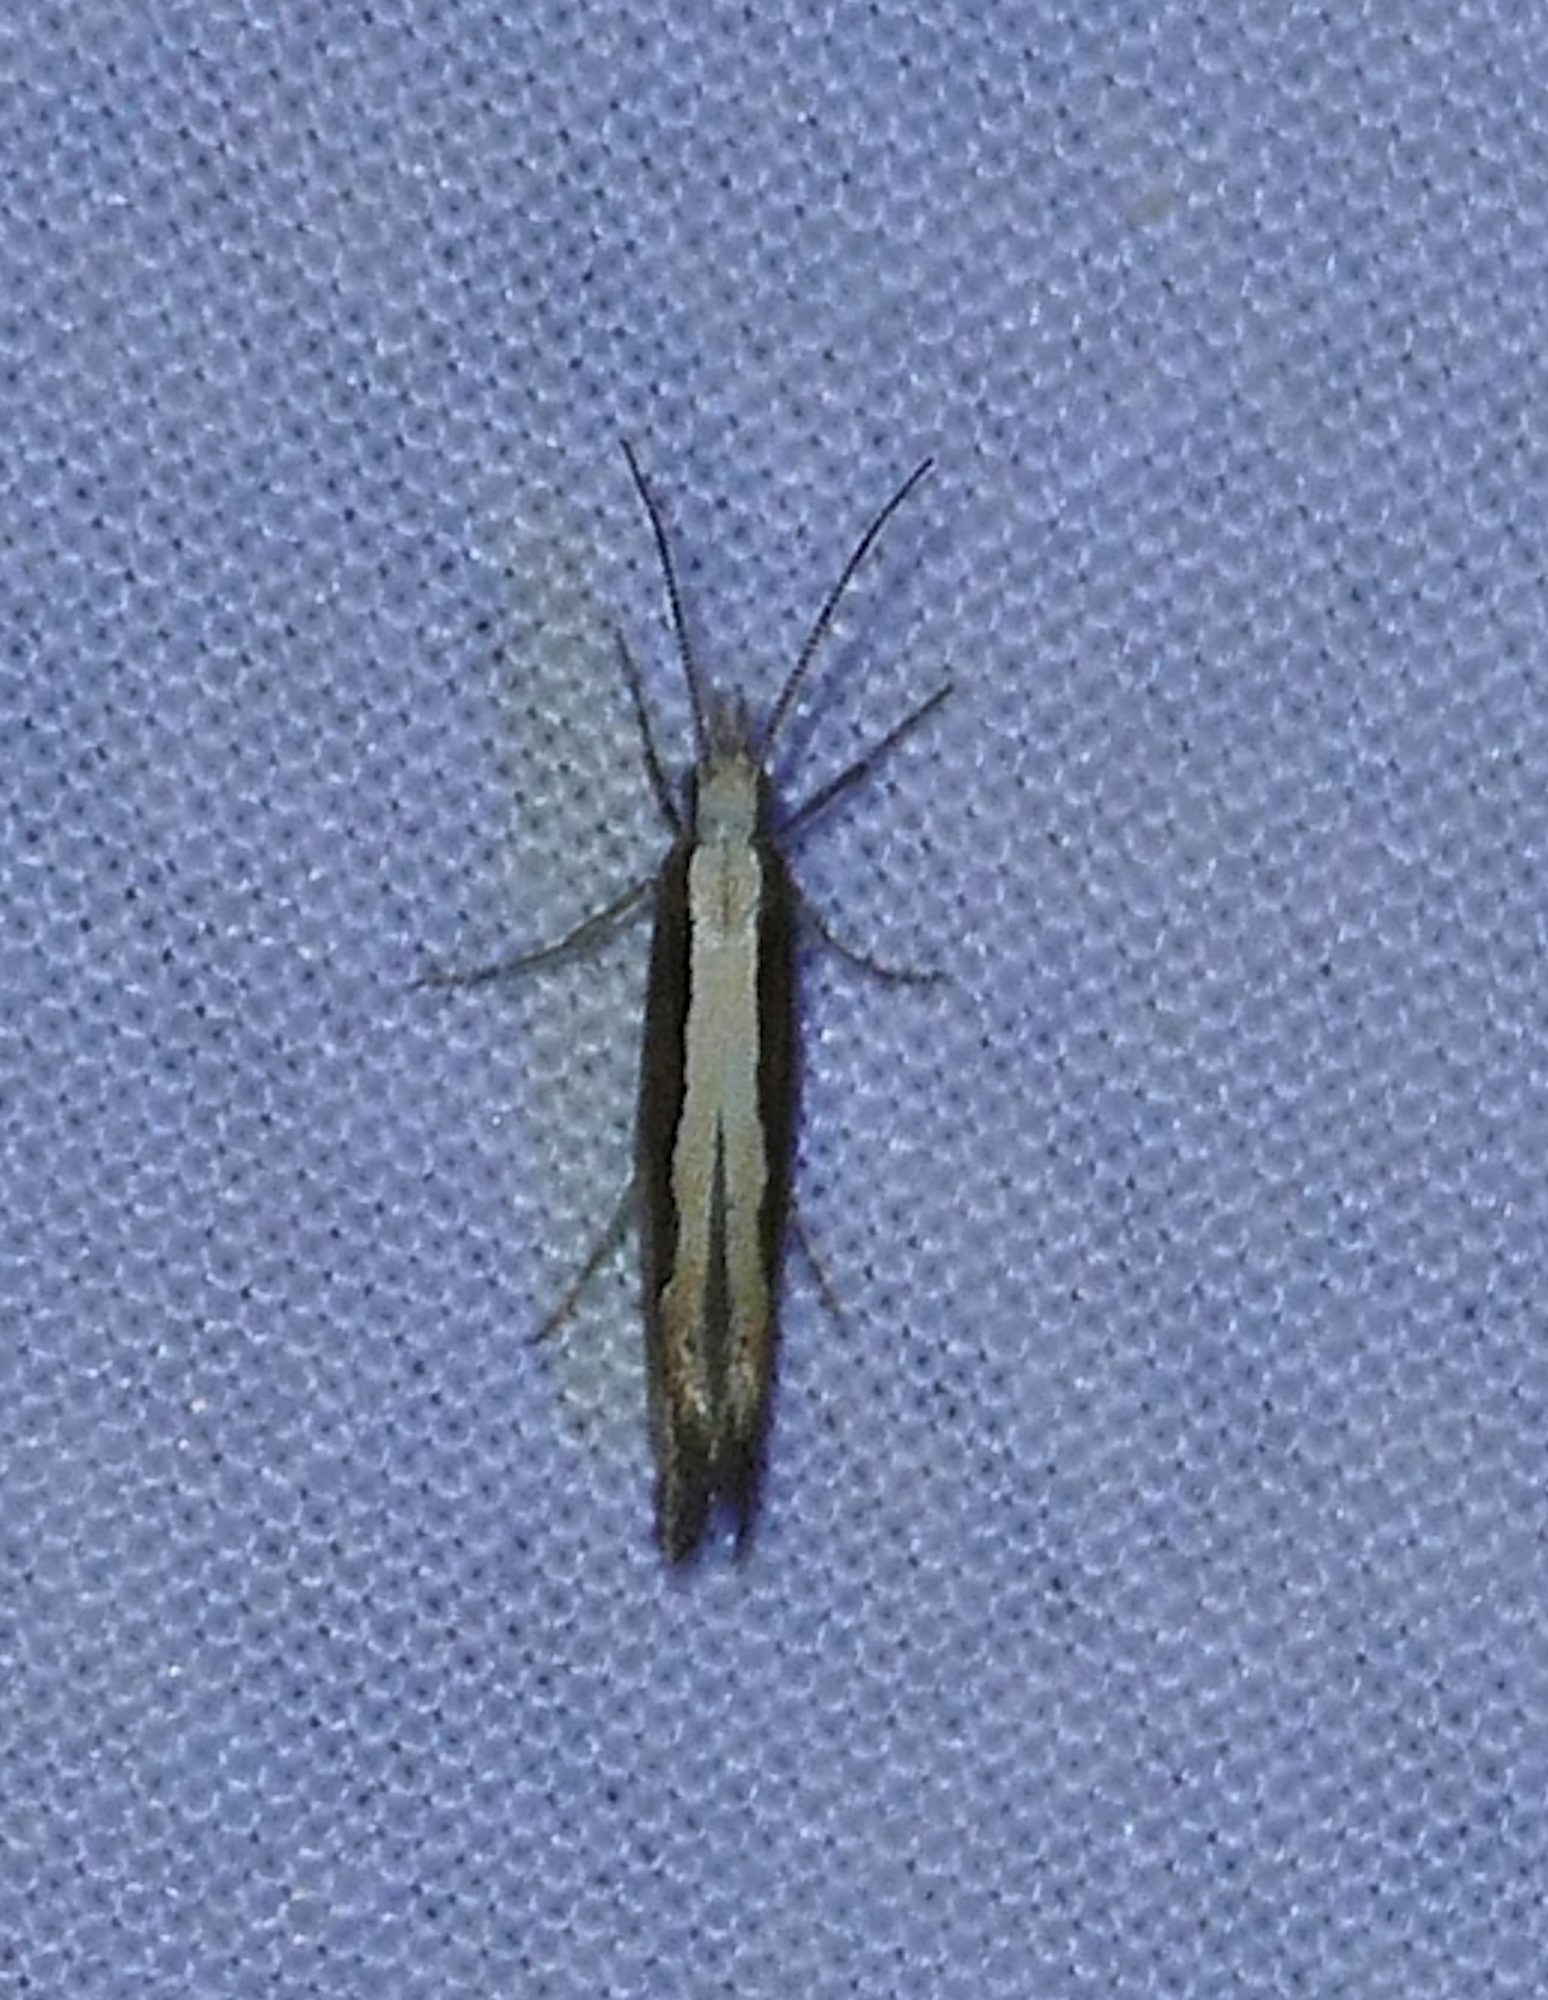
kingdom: Animalia
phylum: Arthropoda
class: Insecta
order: Lepidoptera
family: Plutellidae
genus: Plutella
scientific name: Plutella xylostella
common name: Diamond-back moth
